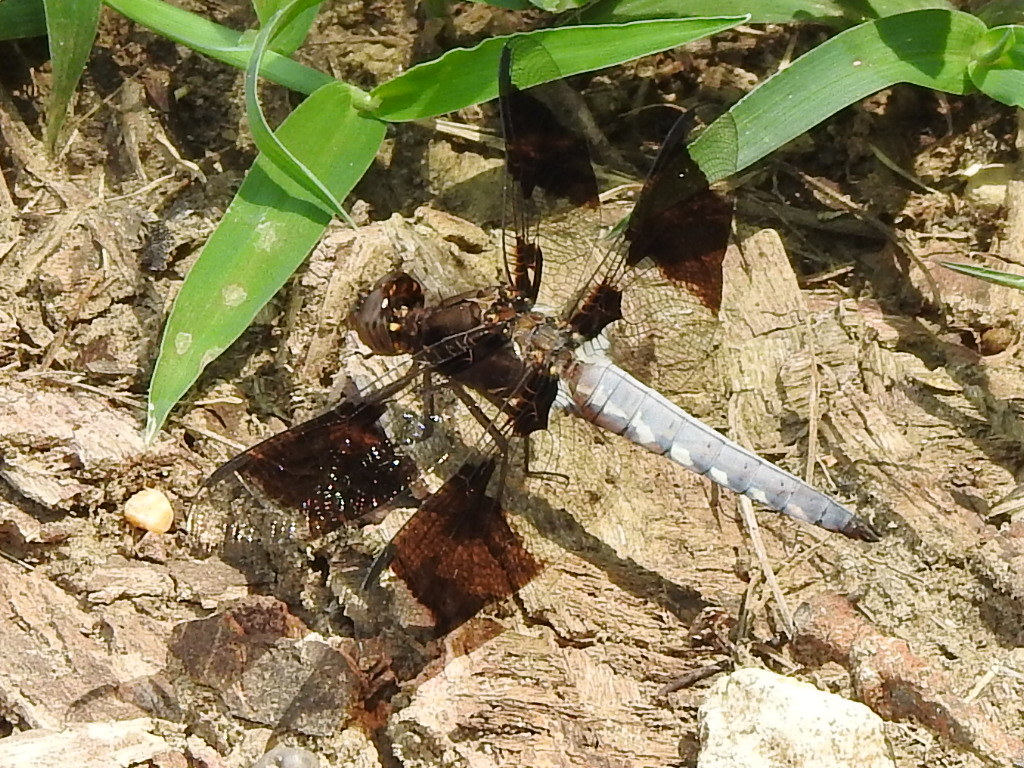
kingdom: Animalia
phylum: Arthropoda
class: Insecta
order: Odonata
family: Libellulidae
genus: Plathemis
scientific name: Plathemis lydia
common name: Common whitetail
